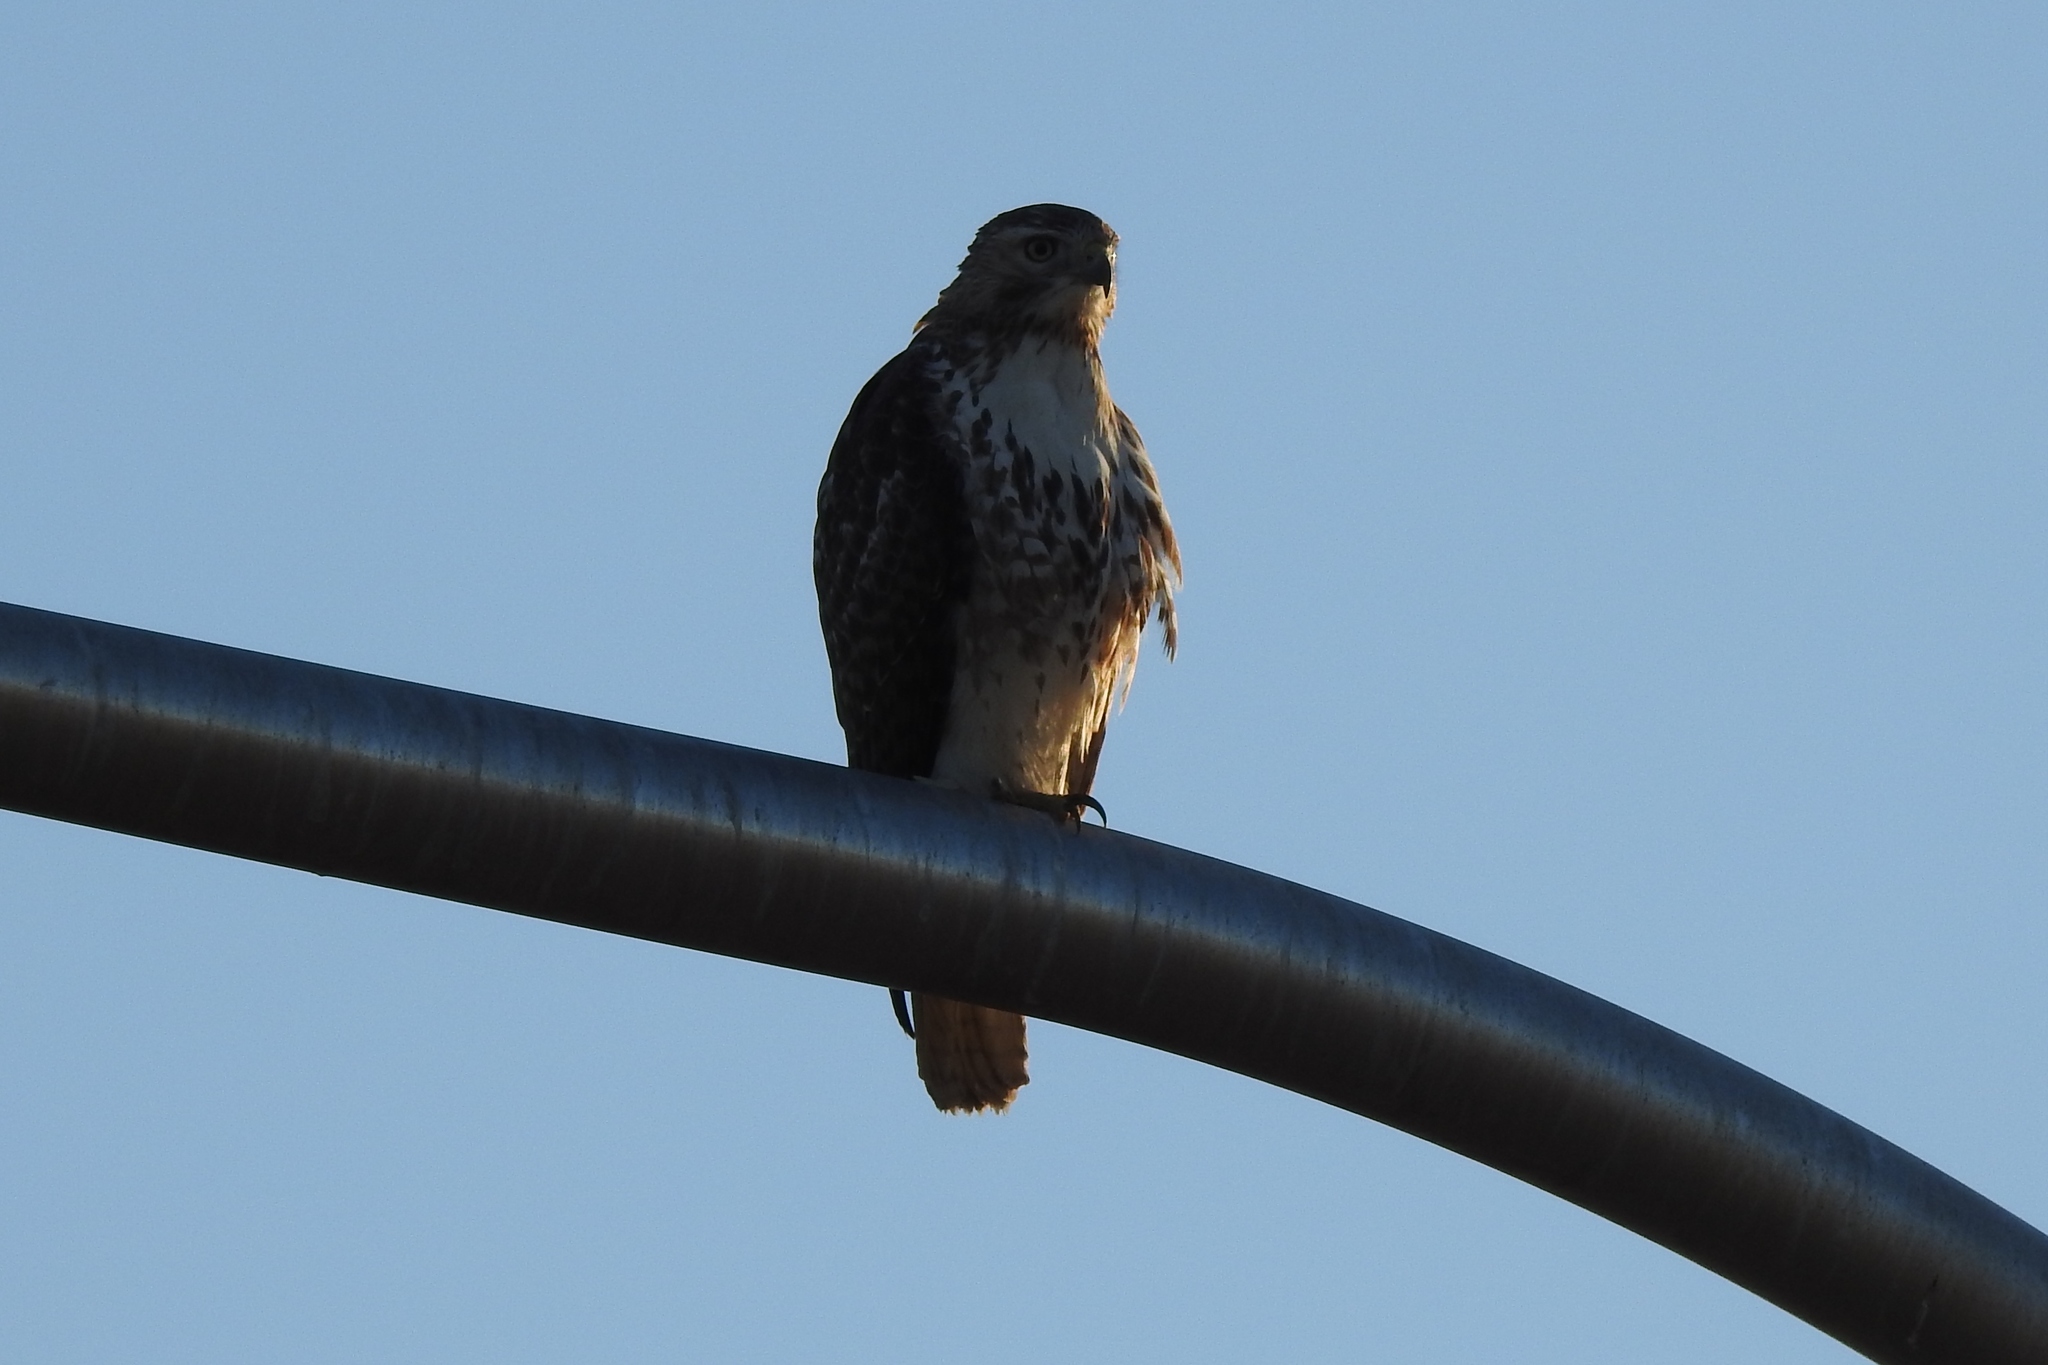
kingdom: Animalia
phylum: Chordata
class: Aves
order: Accipitriformes
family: Accipitridae
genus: Buteo
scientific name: Buteo jamaicensis
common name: Red-tailed hawk
